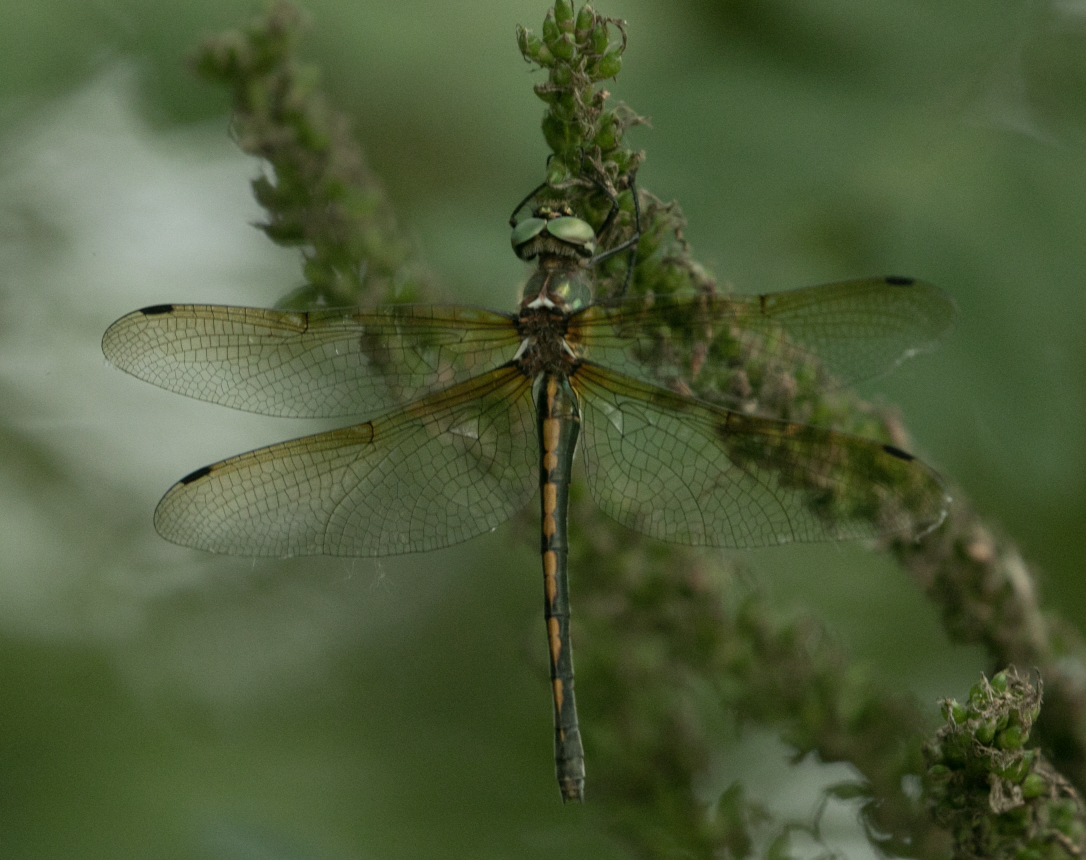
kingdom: Animalia
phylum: Arthropoda
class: Insecta
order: Odonata
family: Corduliidae
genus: Oxygastra
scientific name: Oxygastra curtisii
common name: Orange-spotted emerald
